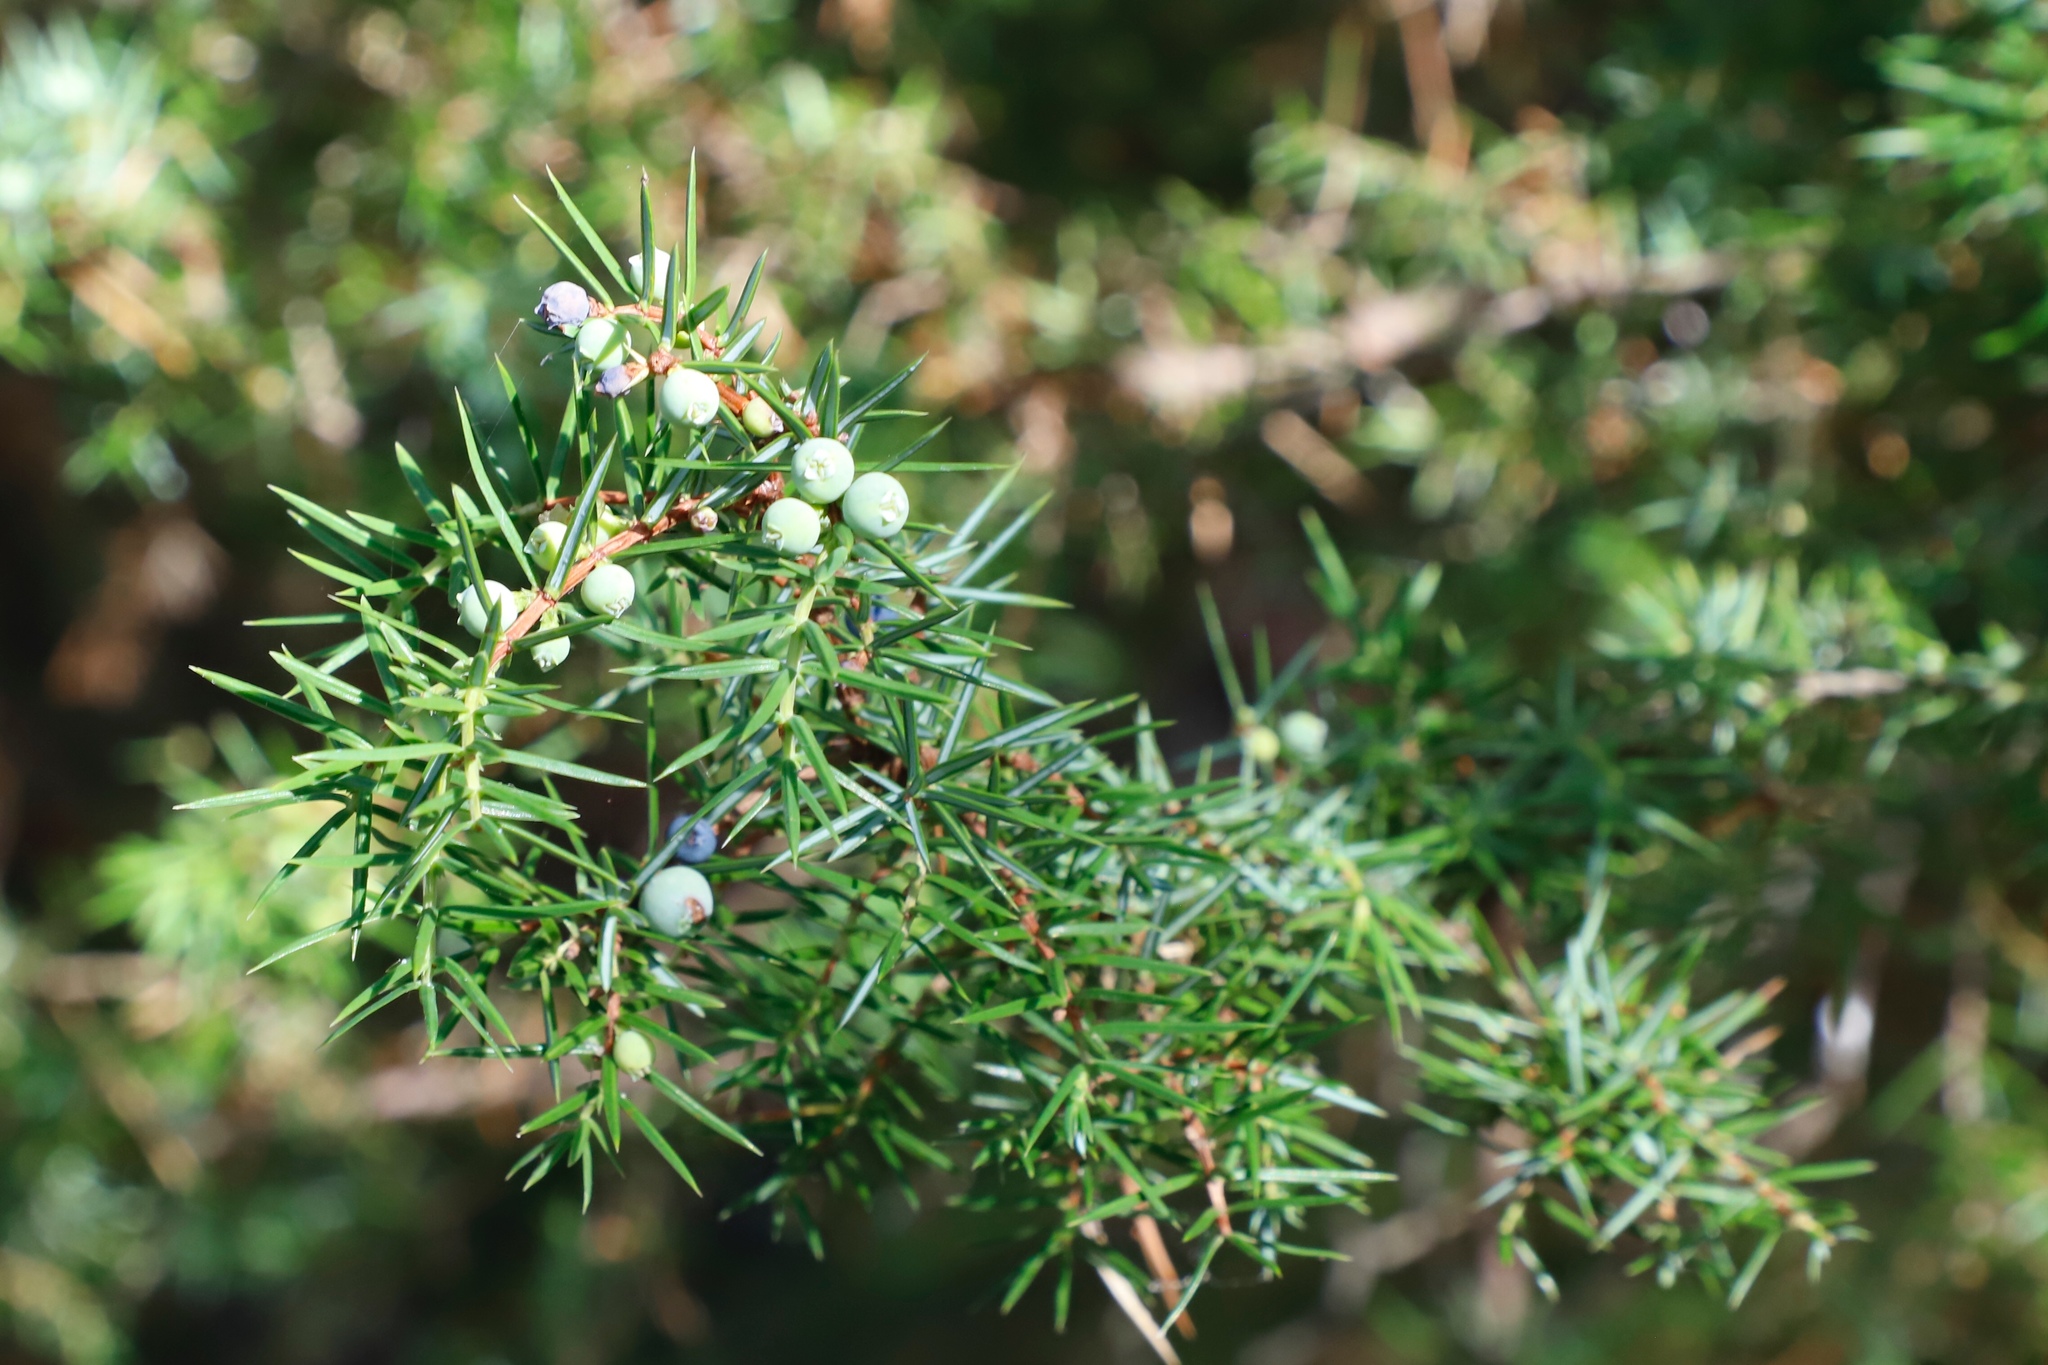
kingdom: Plantae
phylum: Tracheophyta
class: Pinopsida
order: Pinales
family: Cupressaceae
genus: Juniperus
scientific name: Juniperus communis
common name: Common juniper
